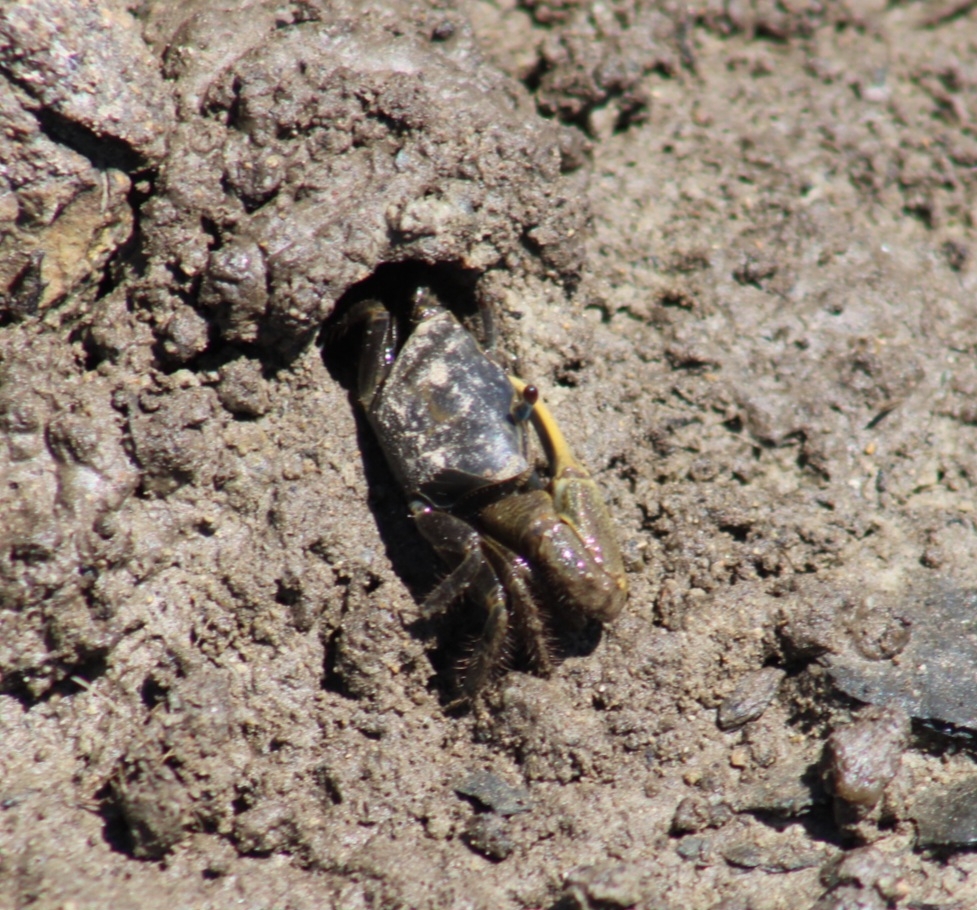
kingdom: Animalia
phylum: Arthropoda
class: Malacostraca
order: Decapoda
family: Ocypodidae
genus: Minuca
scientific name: Minuca pugnax
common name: Mud fiddler crab
